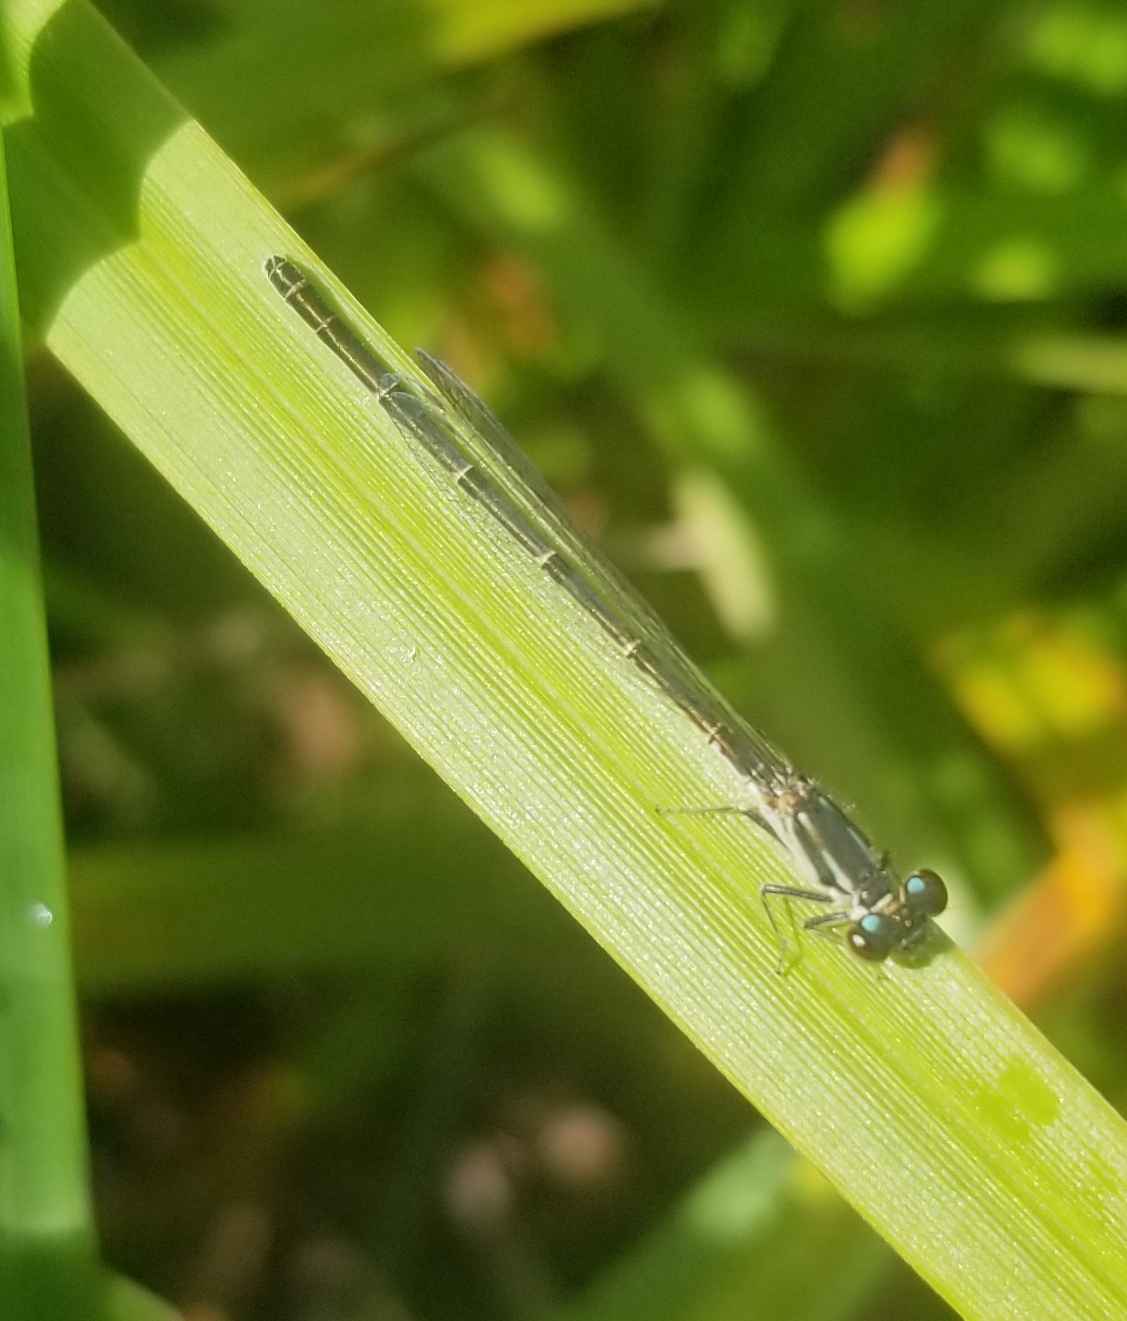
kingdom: Animalia
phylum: Arthropoda
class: Insecta
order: Odonata
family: Coenagrionidae
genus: Ischnura
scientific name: Ischnura posita
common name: Fragile forktail
